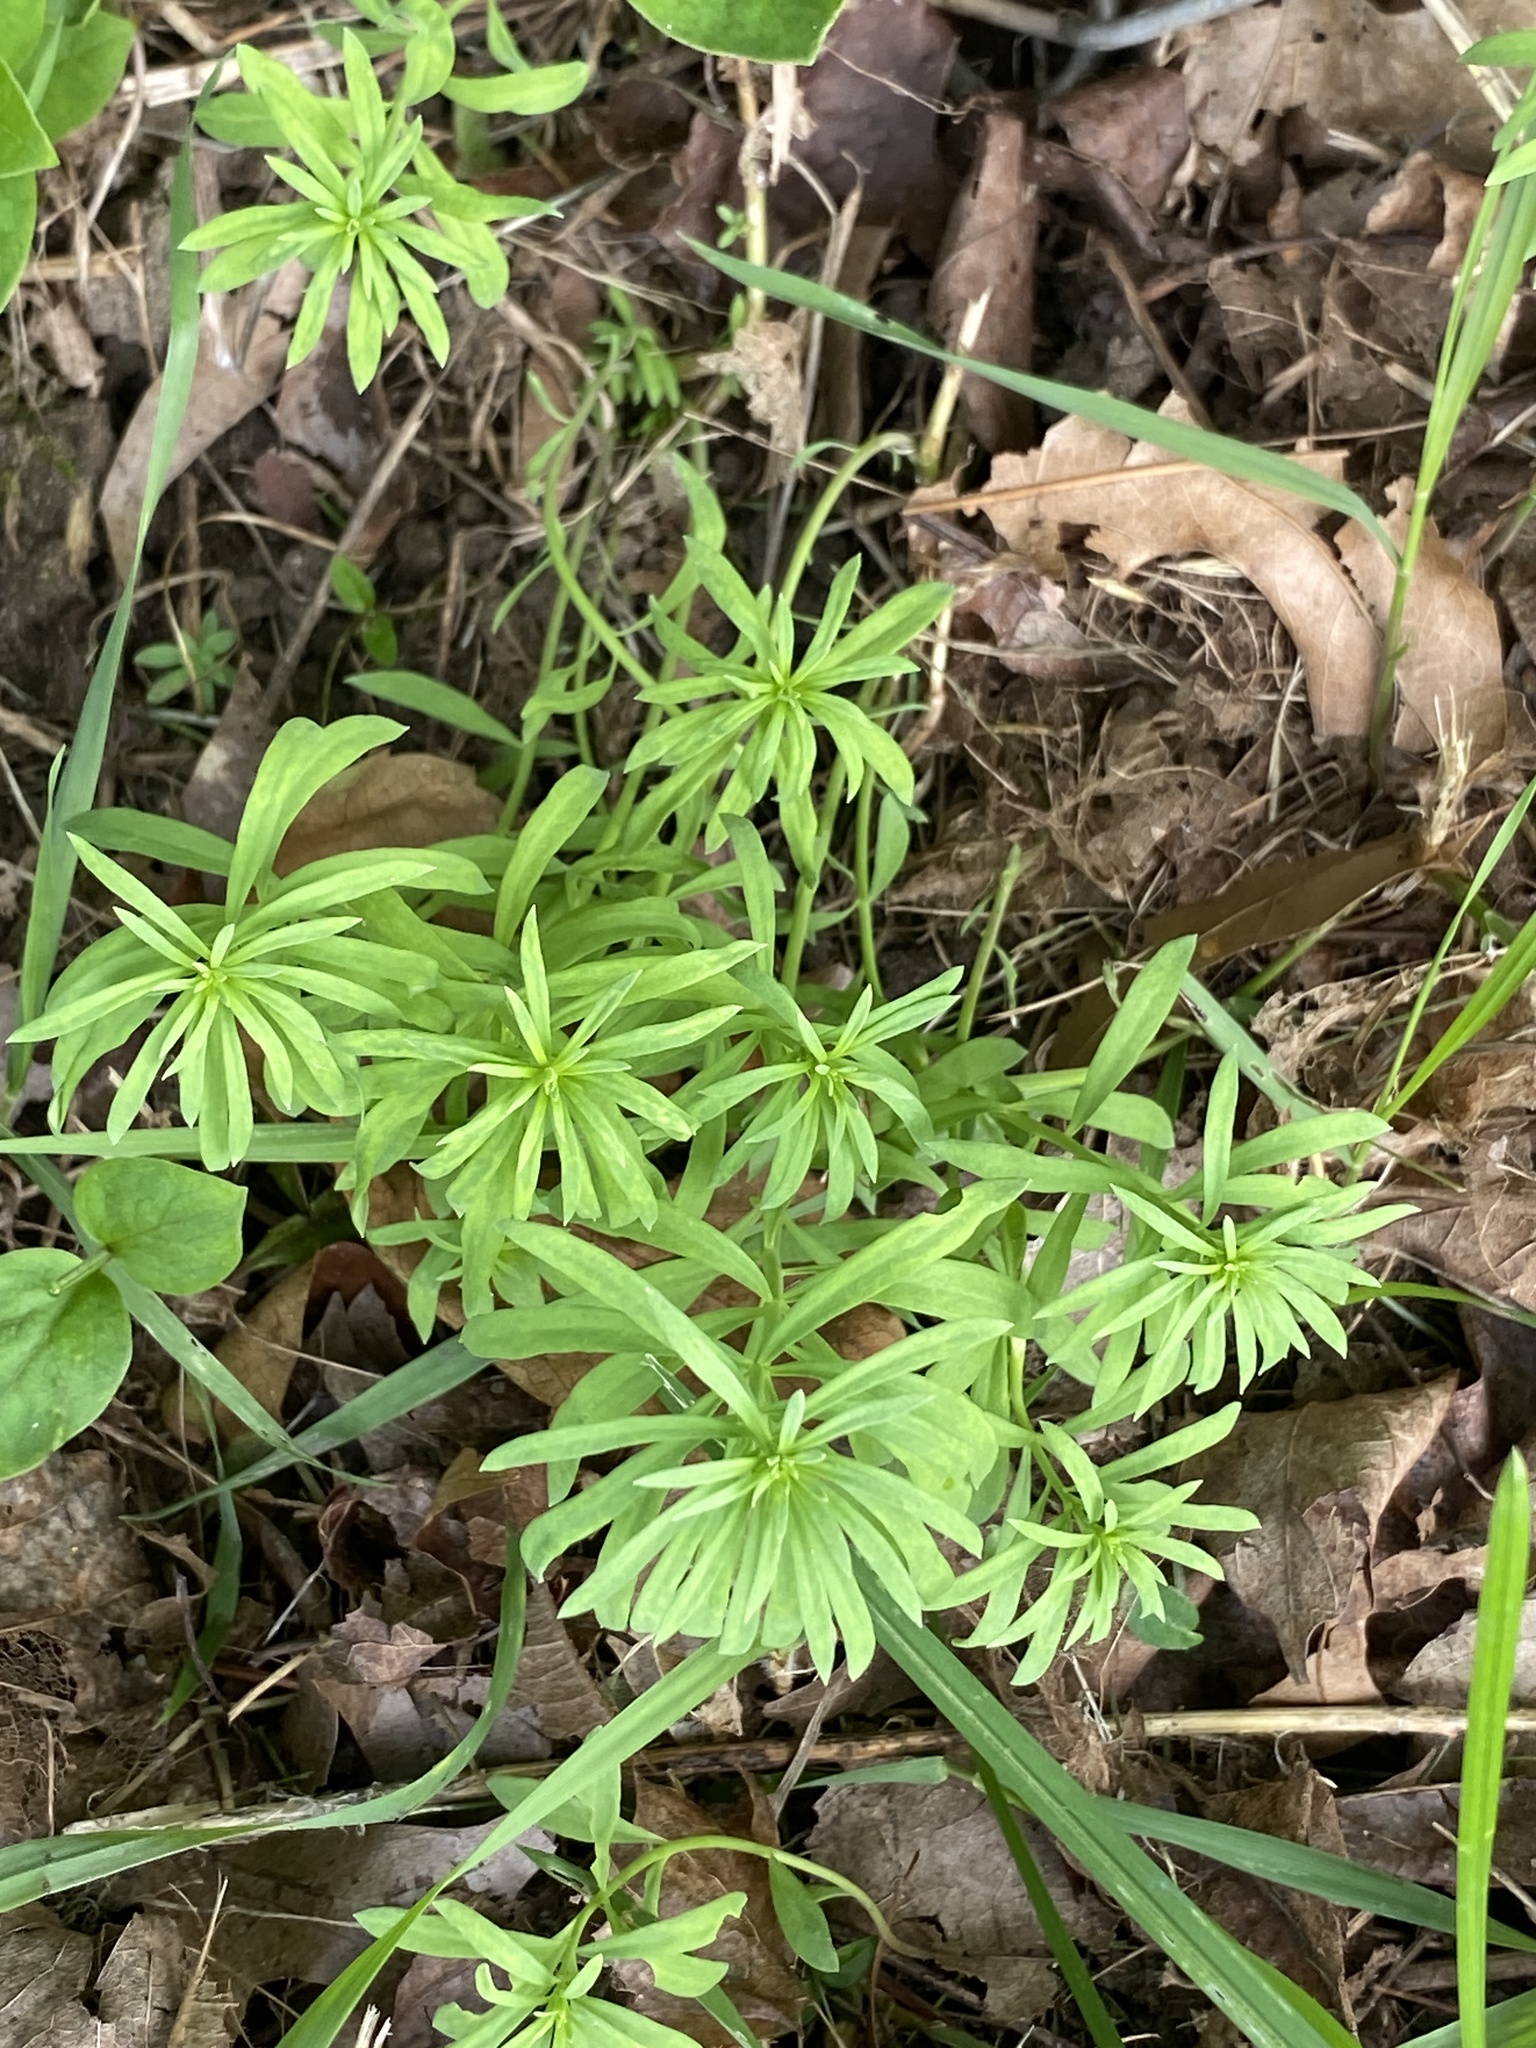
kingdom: Plantae
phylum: Tracheophyta
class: Magnoliopsida
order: Lamiales
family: Plantaginaceae
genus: Linaria
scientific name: Linaria vulgaris
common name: Butter and eggs
